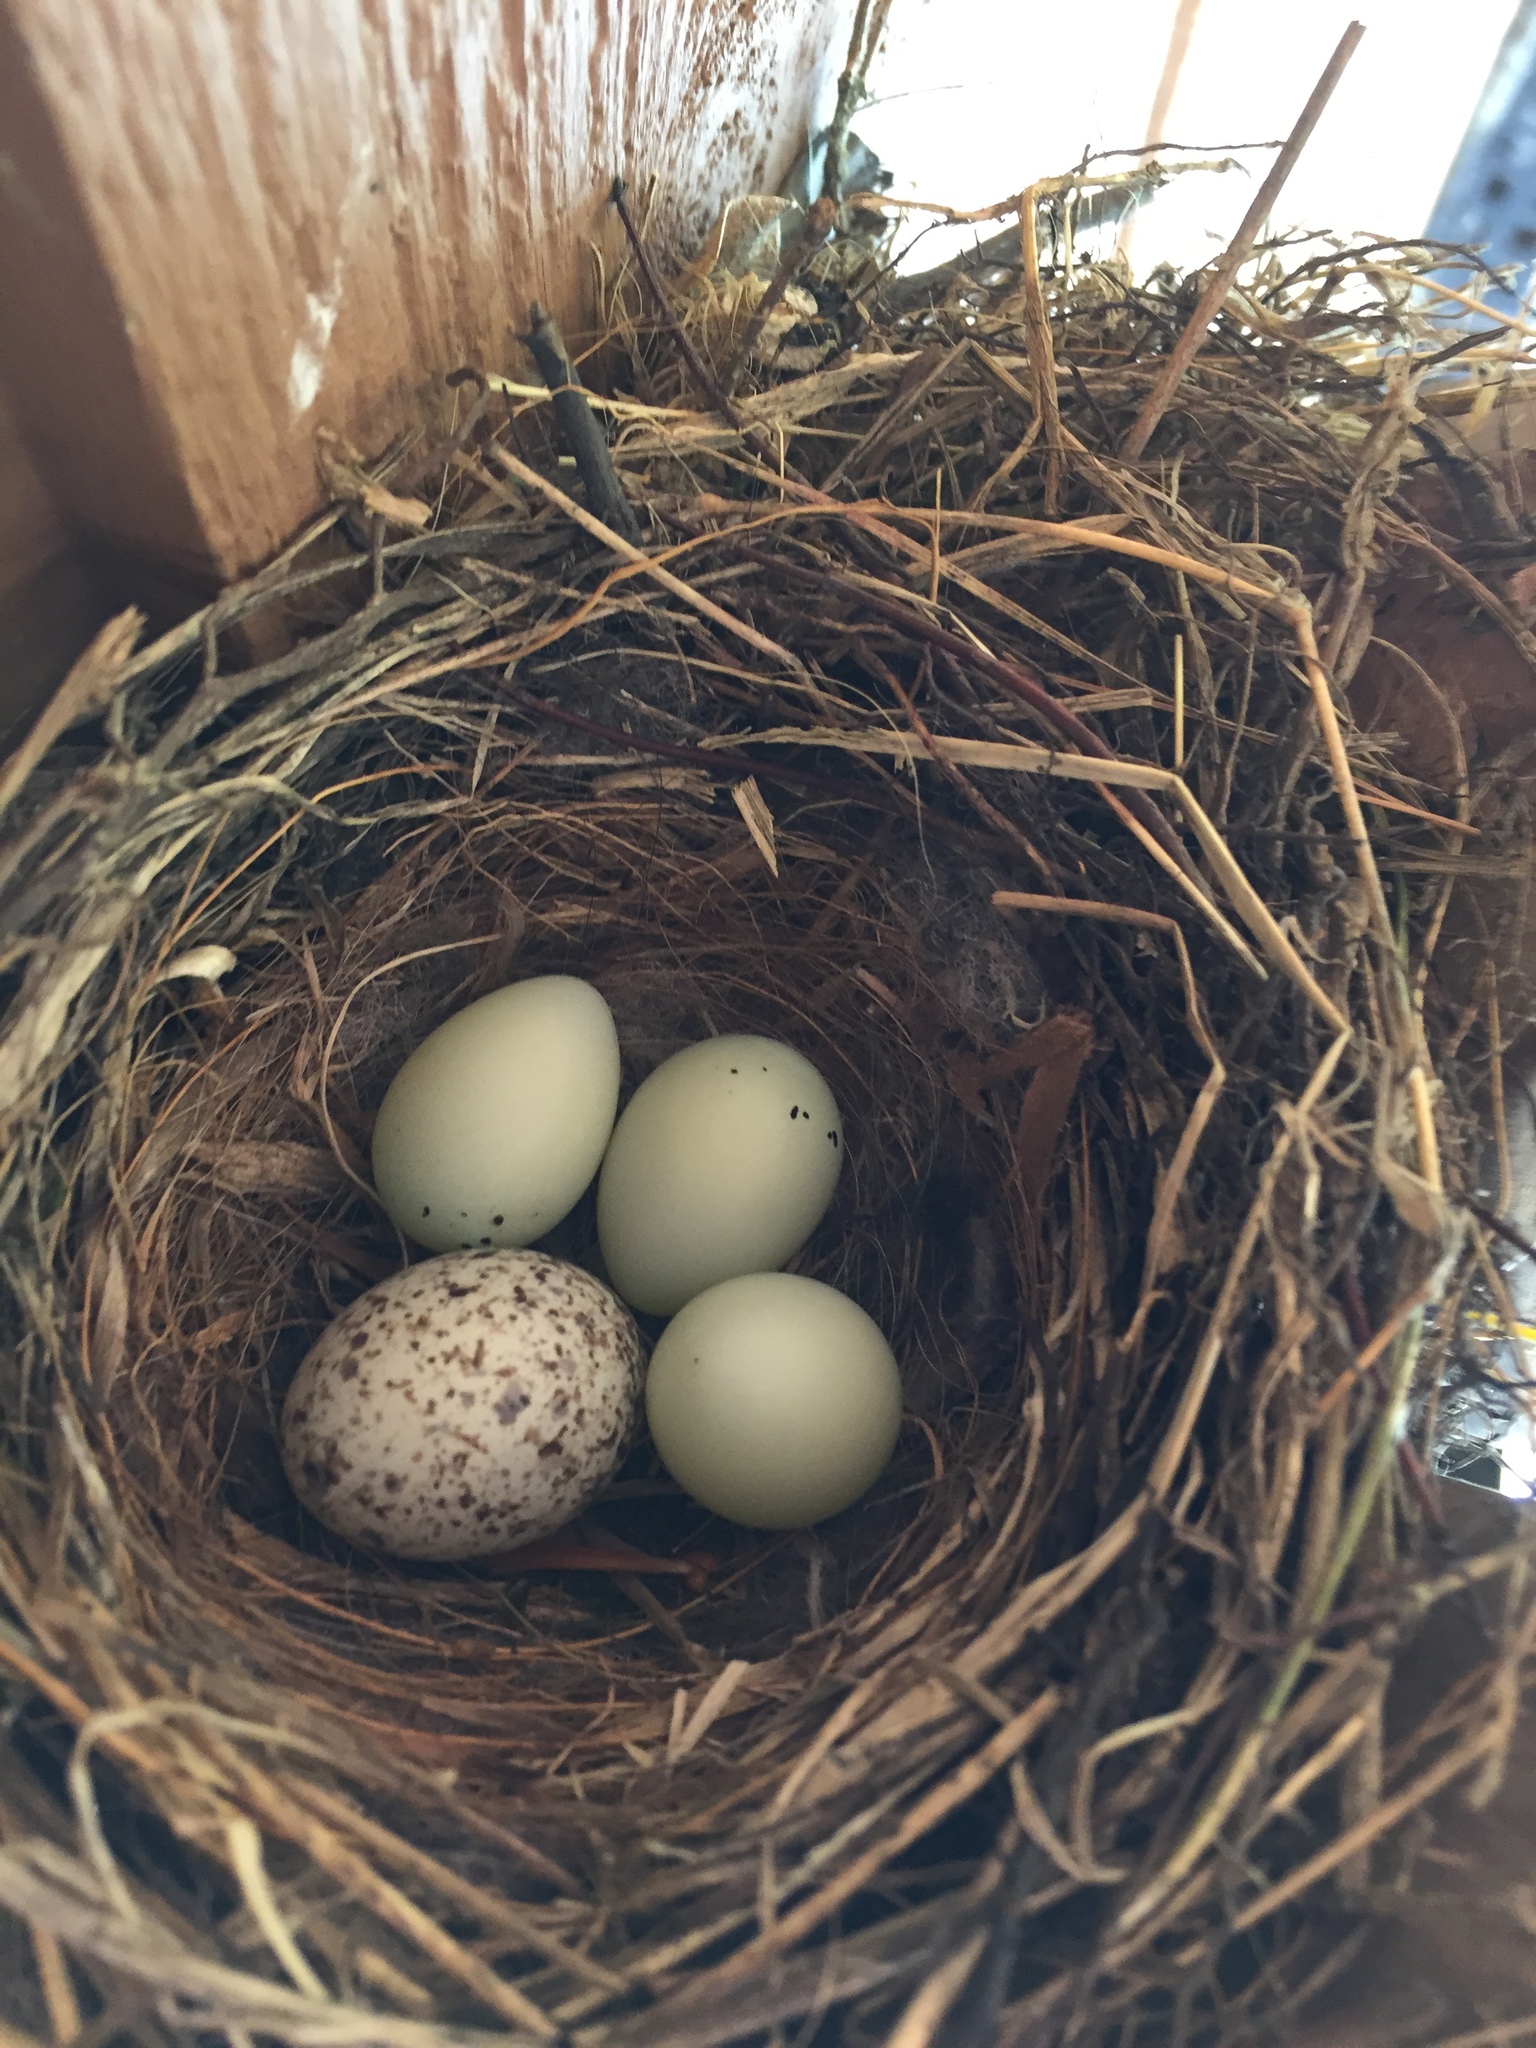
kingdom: Animalia
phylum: Chordata
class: Aves
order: Passeriformes
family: Fringillidae
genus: Haemorhous
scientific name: Haemorhous mexicanus
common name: House finch
